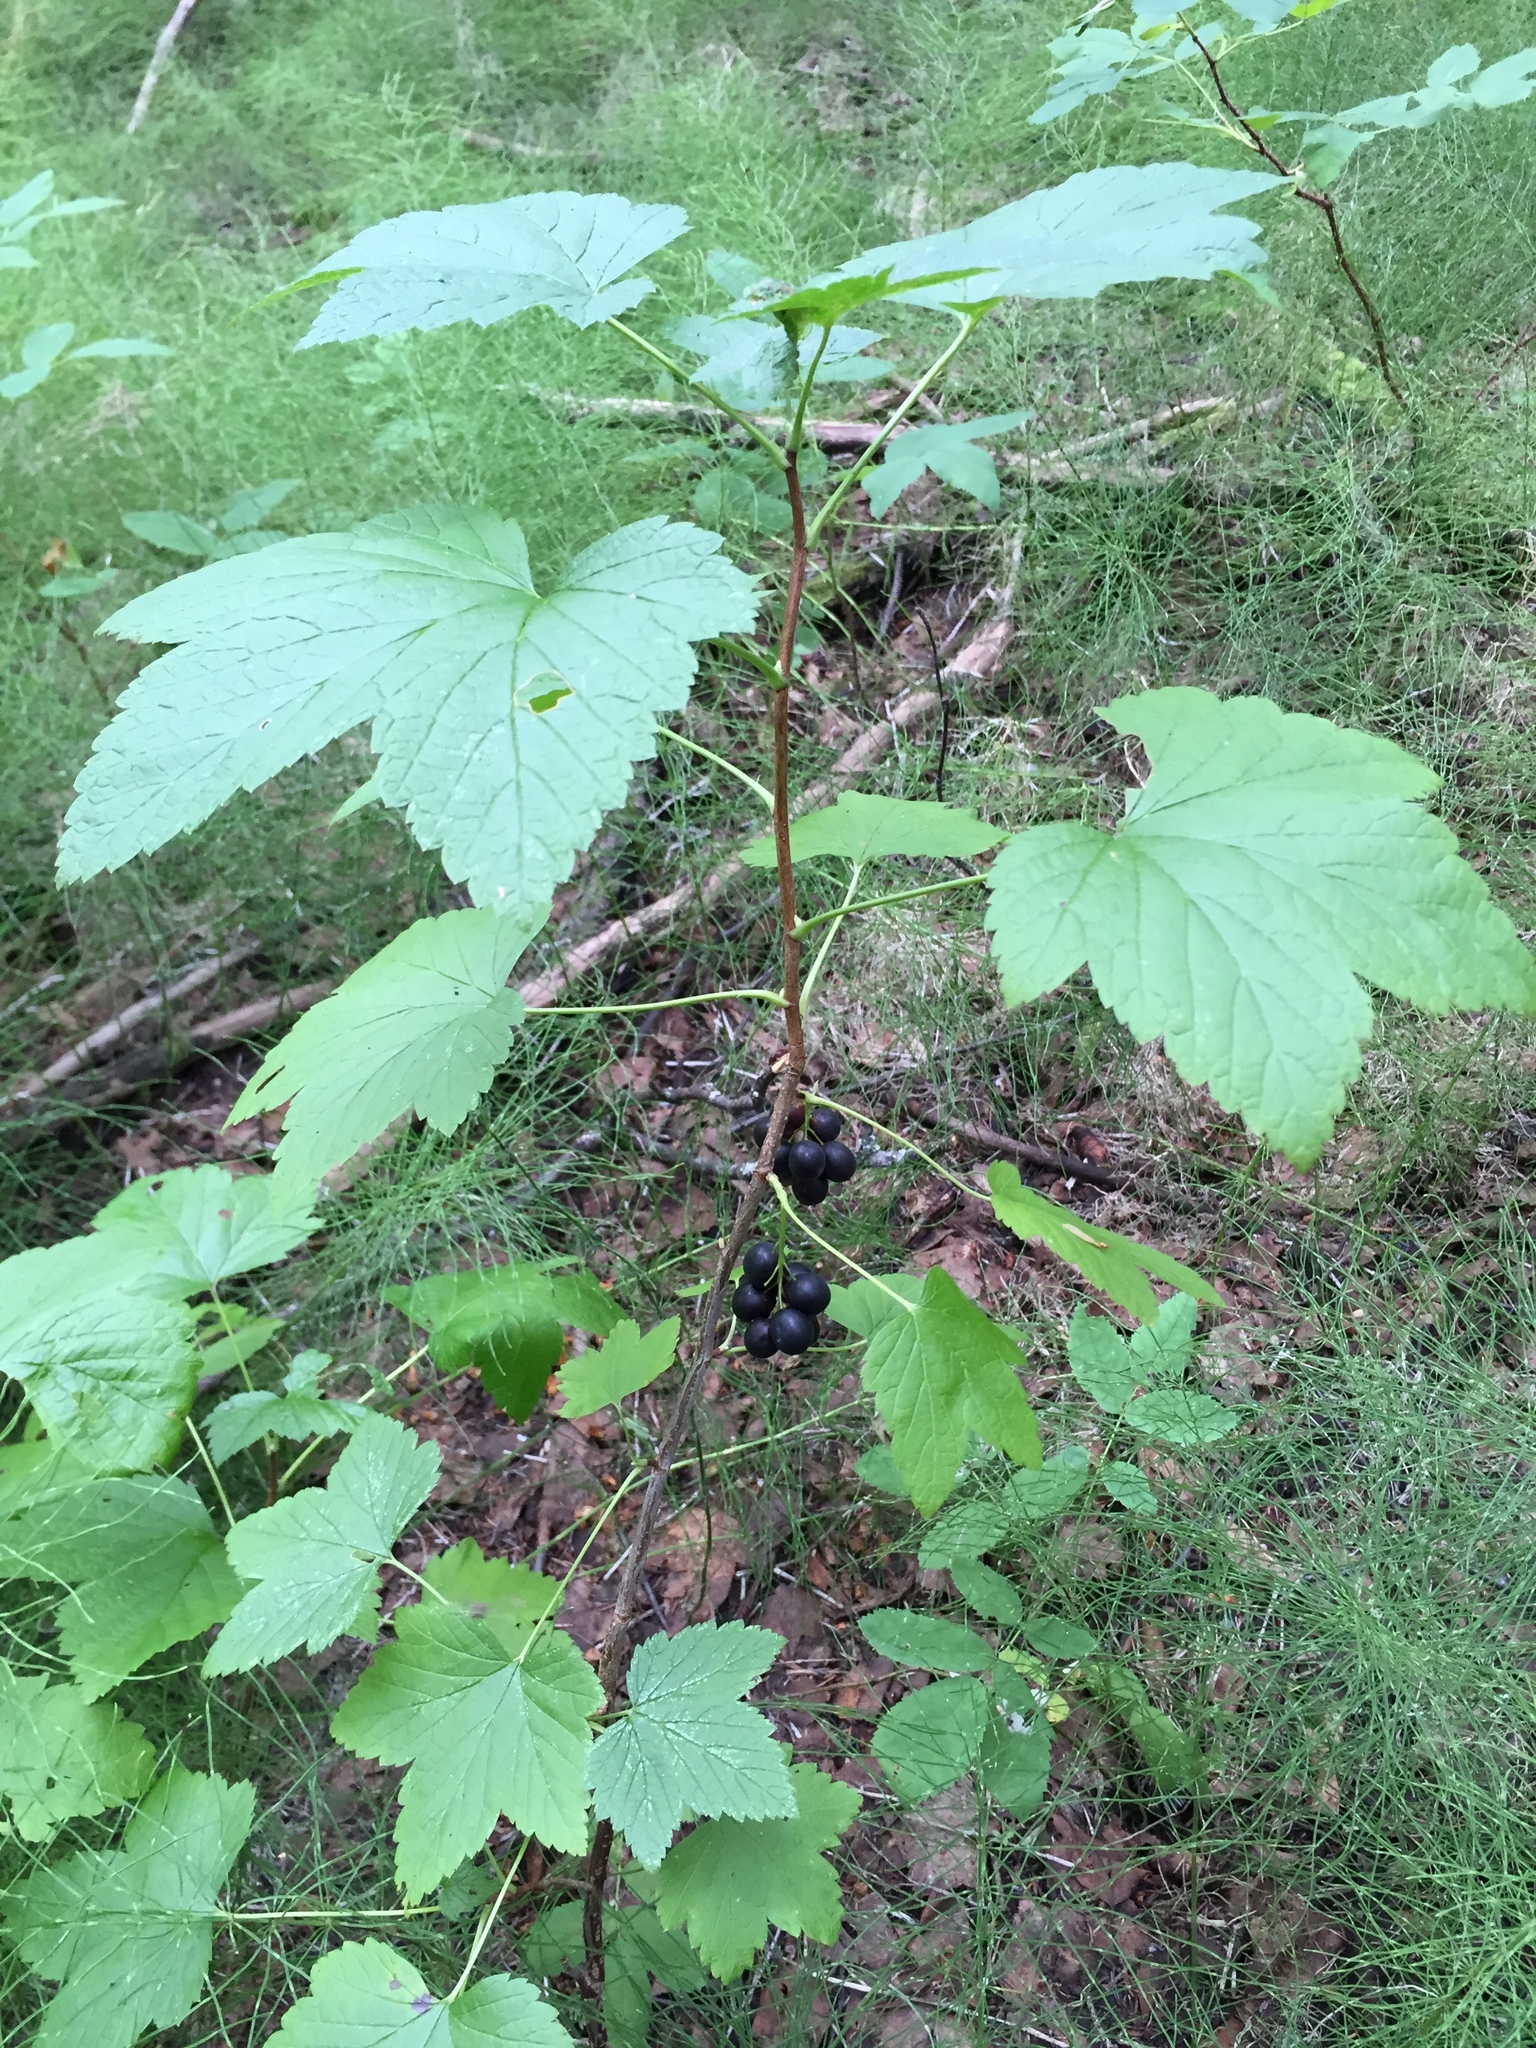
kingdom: Plantae
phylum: Tracheophyta
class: Magnoliopsida
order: Saxifragales
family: Grossulariaceae
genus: Ribes
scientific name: Ribes hudsonianum
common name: Northern black currant
